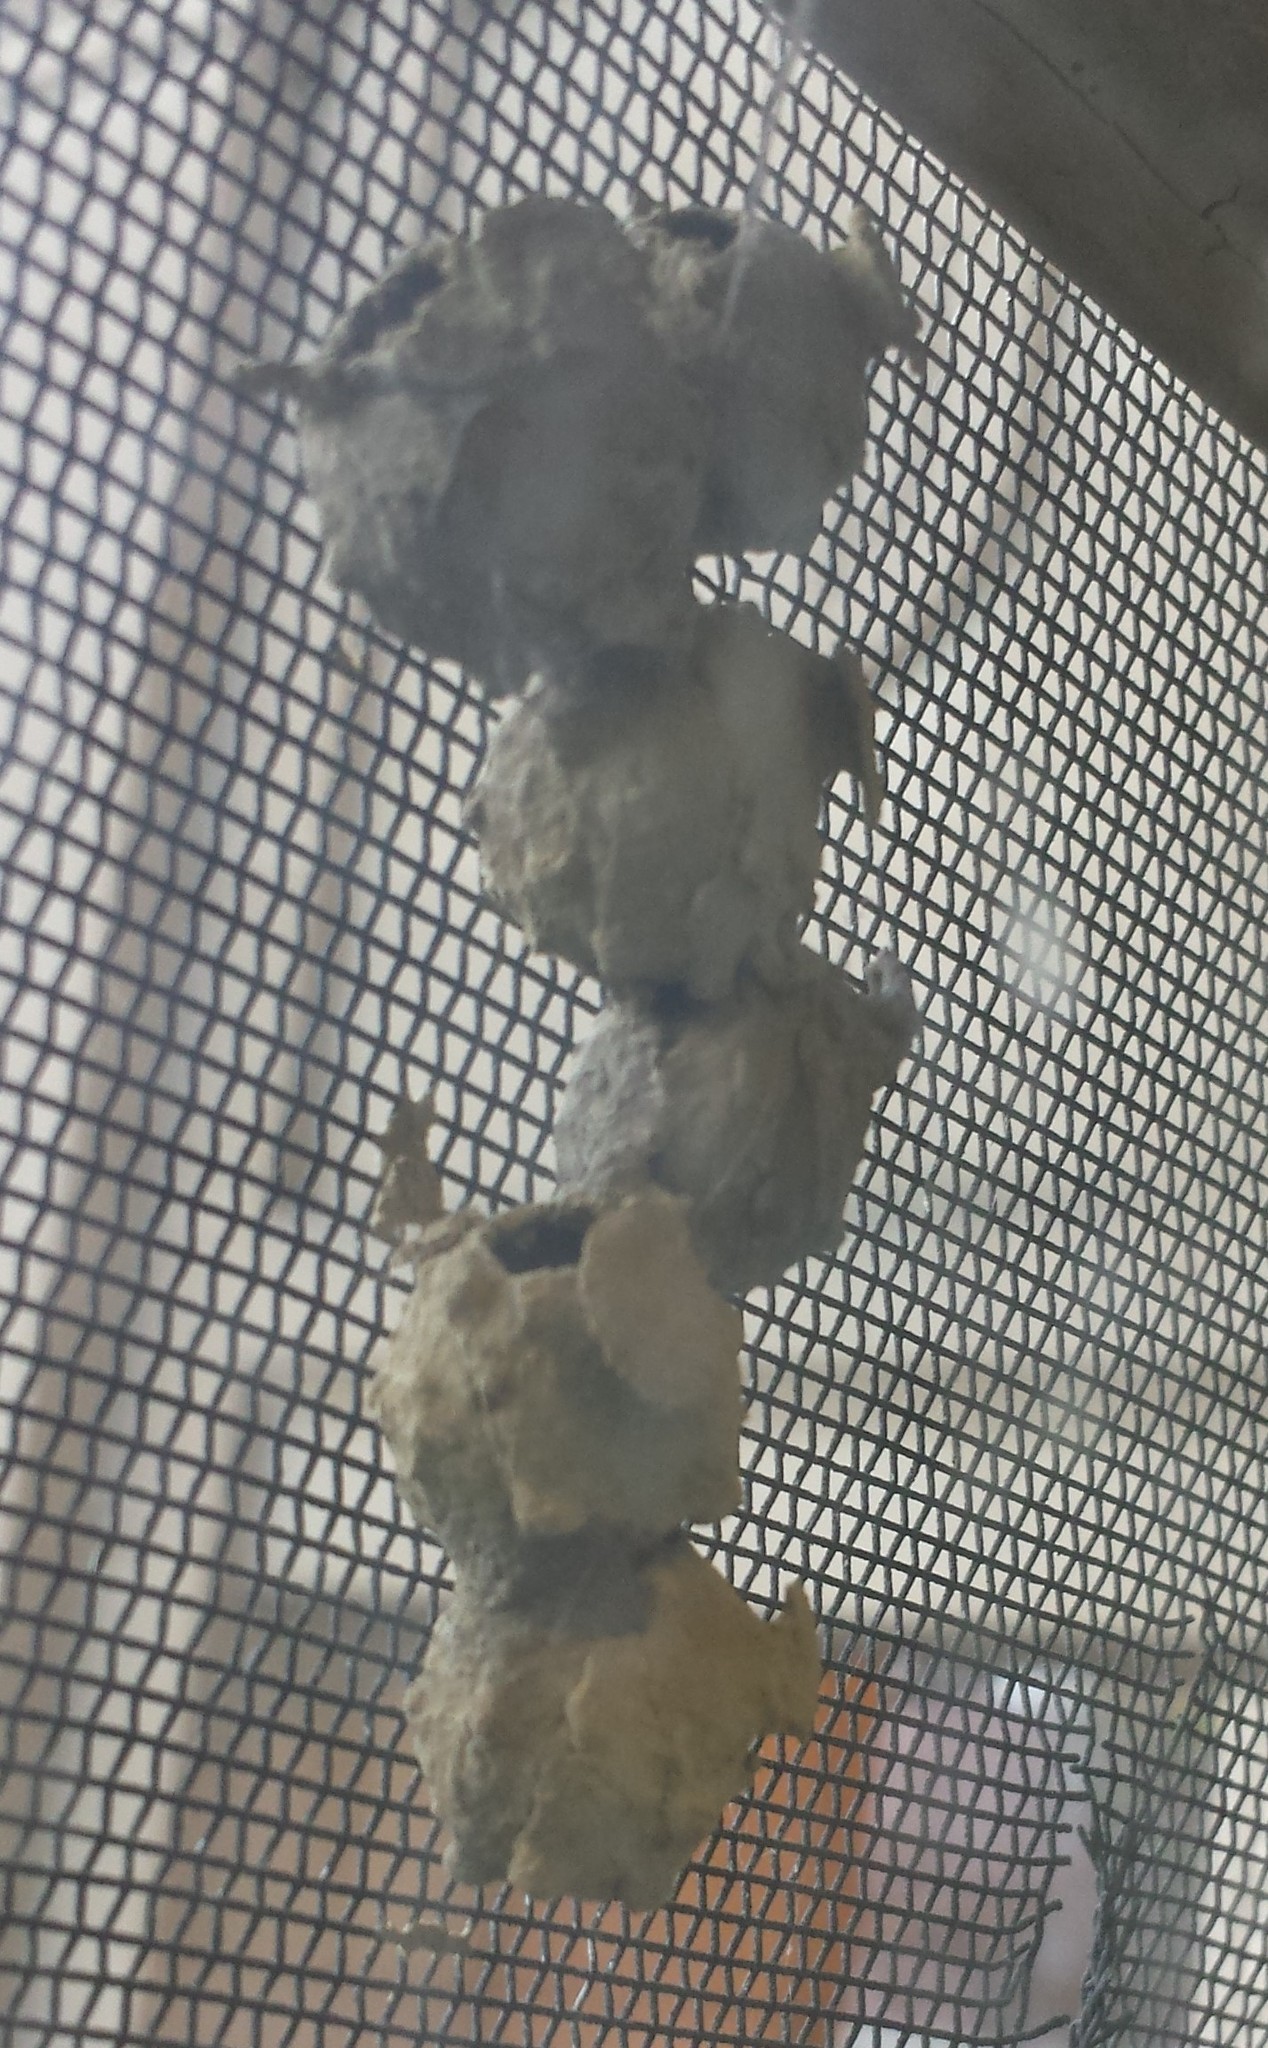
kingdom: Animalia
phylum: Arthropoda
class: Insecta
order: Hymenoptera
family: Vespidae
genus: Eumenes
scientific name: Eumenes
